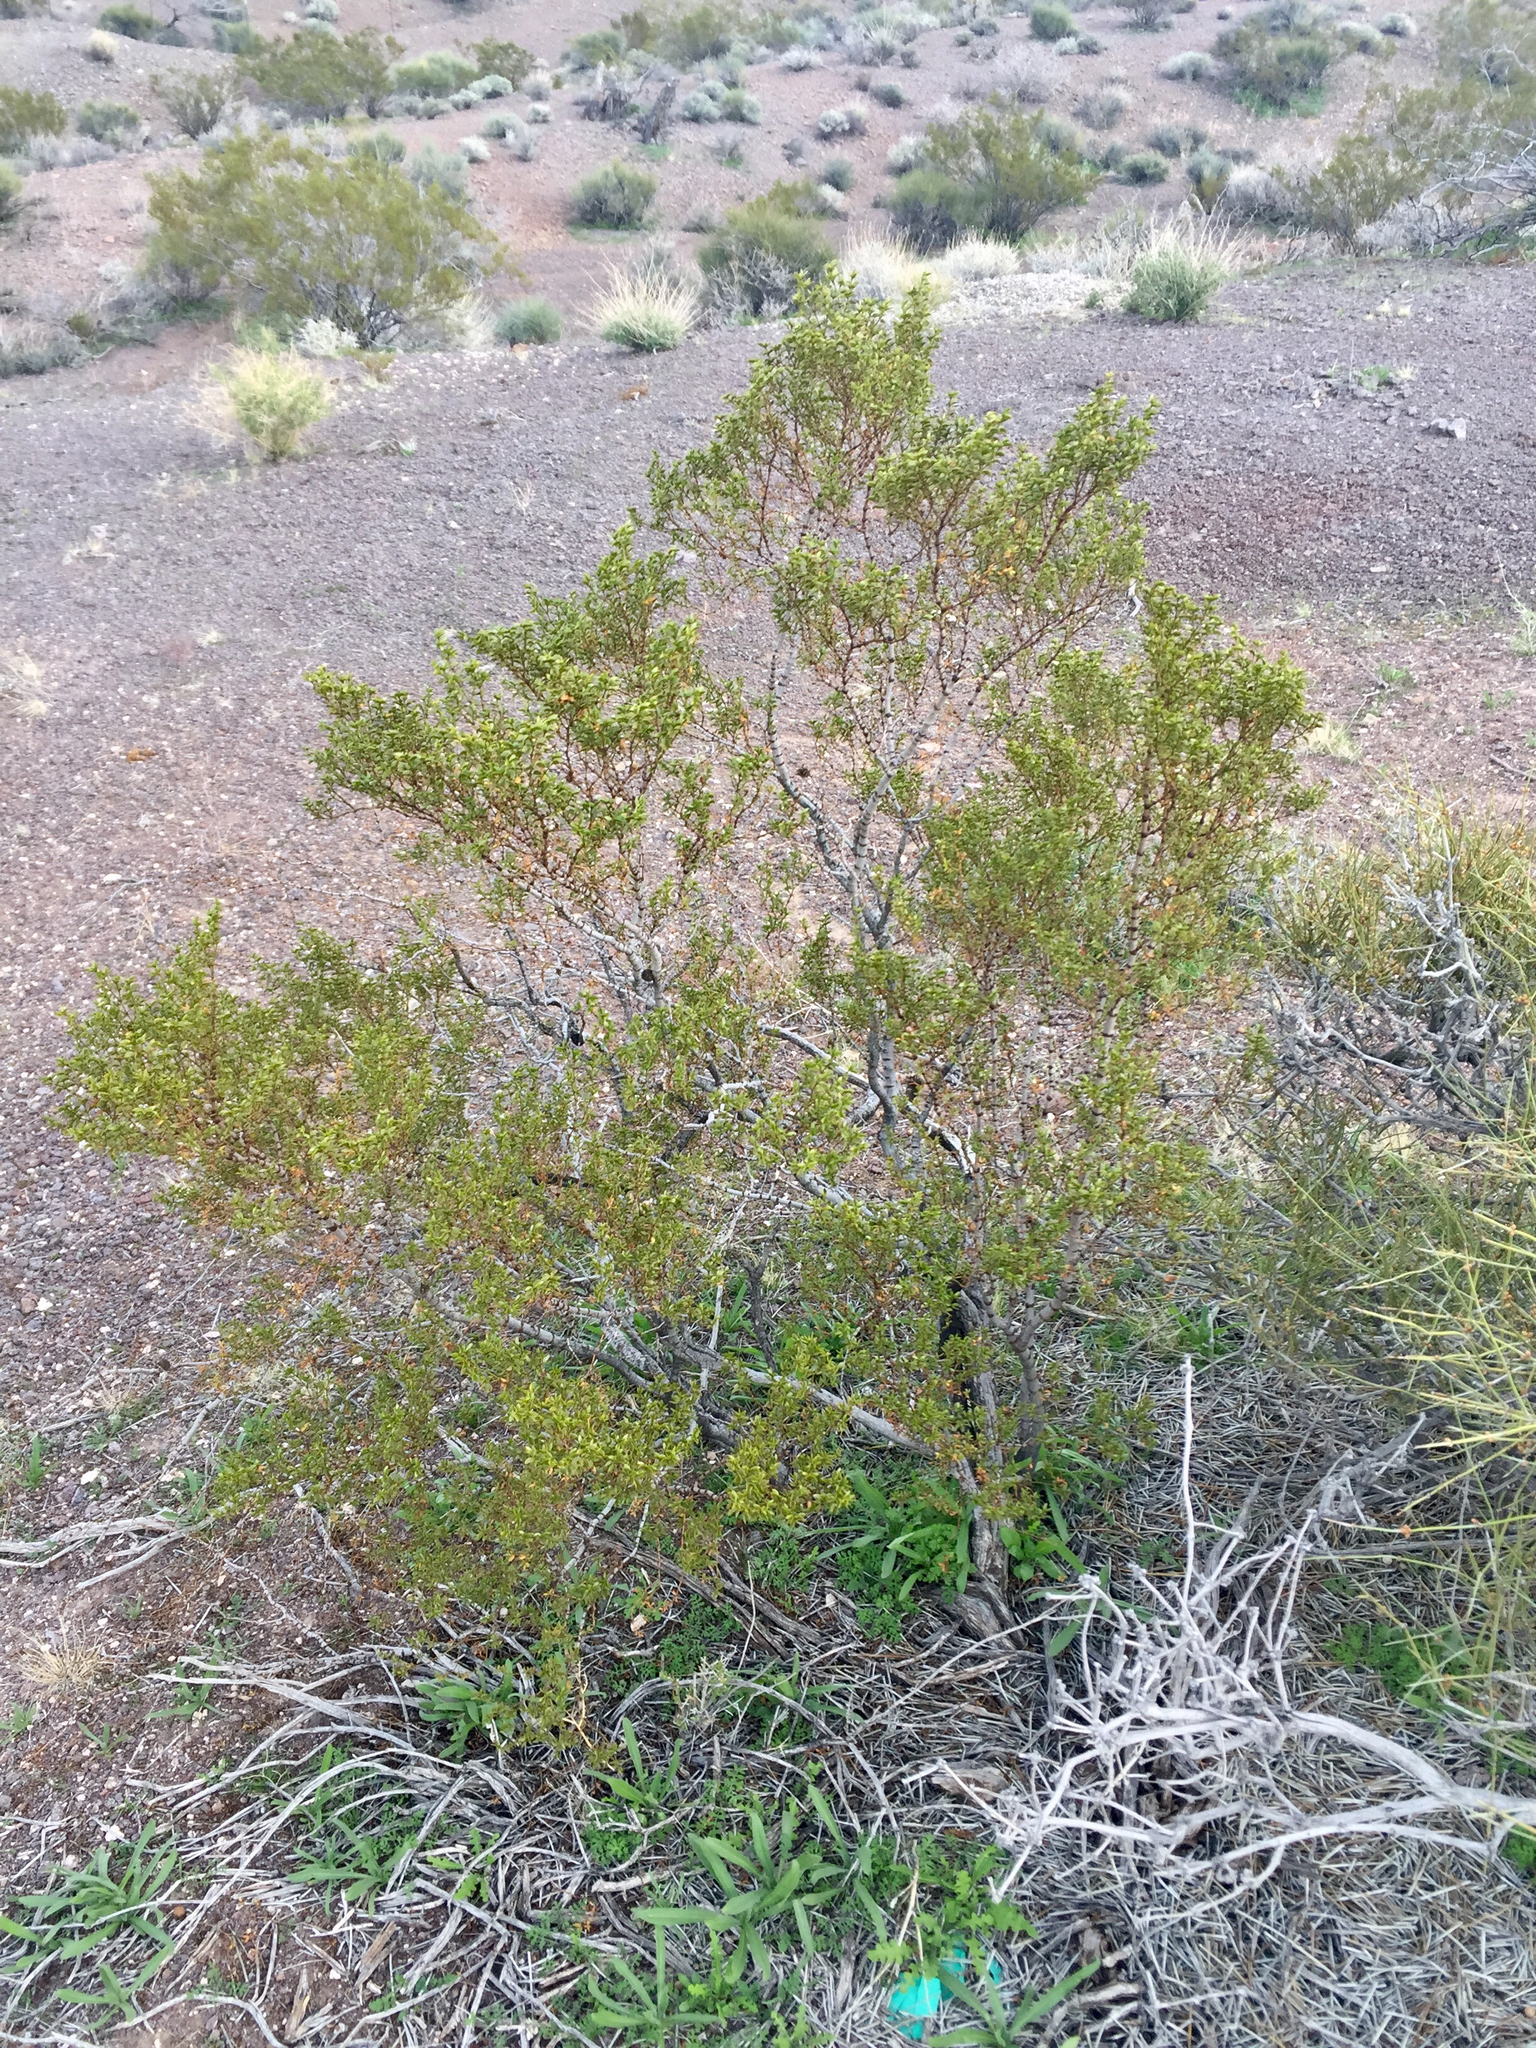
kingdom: Plantae
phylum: Tracheophyta
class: Magnoliopsida
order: Zygophyllales
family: Zygophyllaceae
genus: Larrea
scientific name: Larrea tridentata
